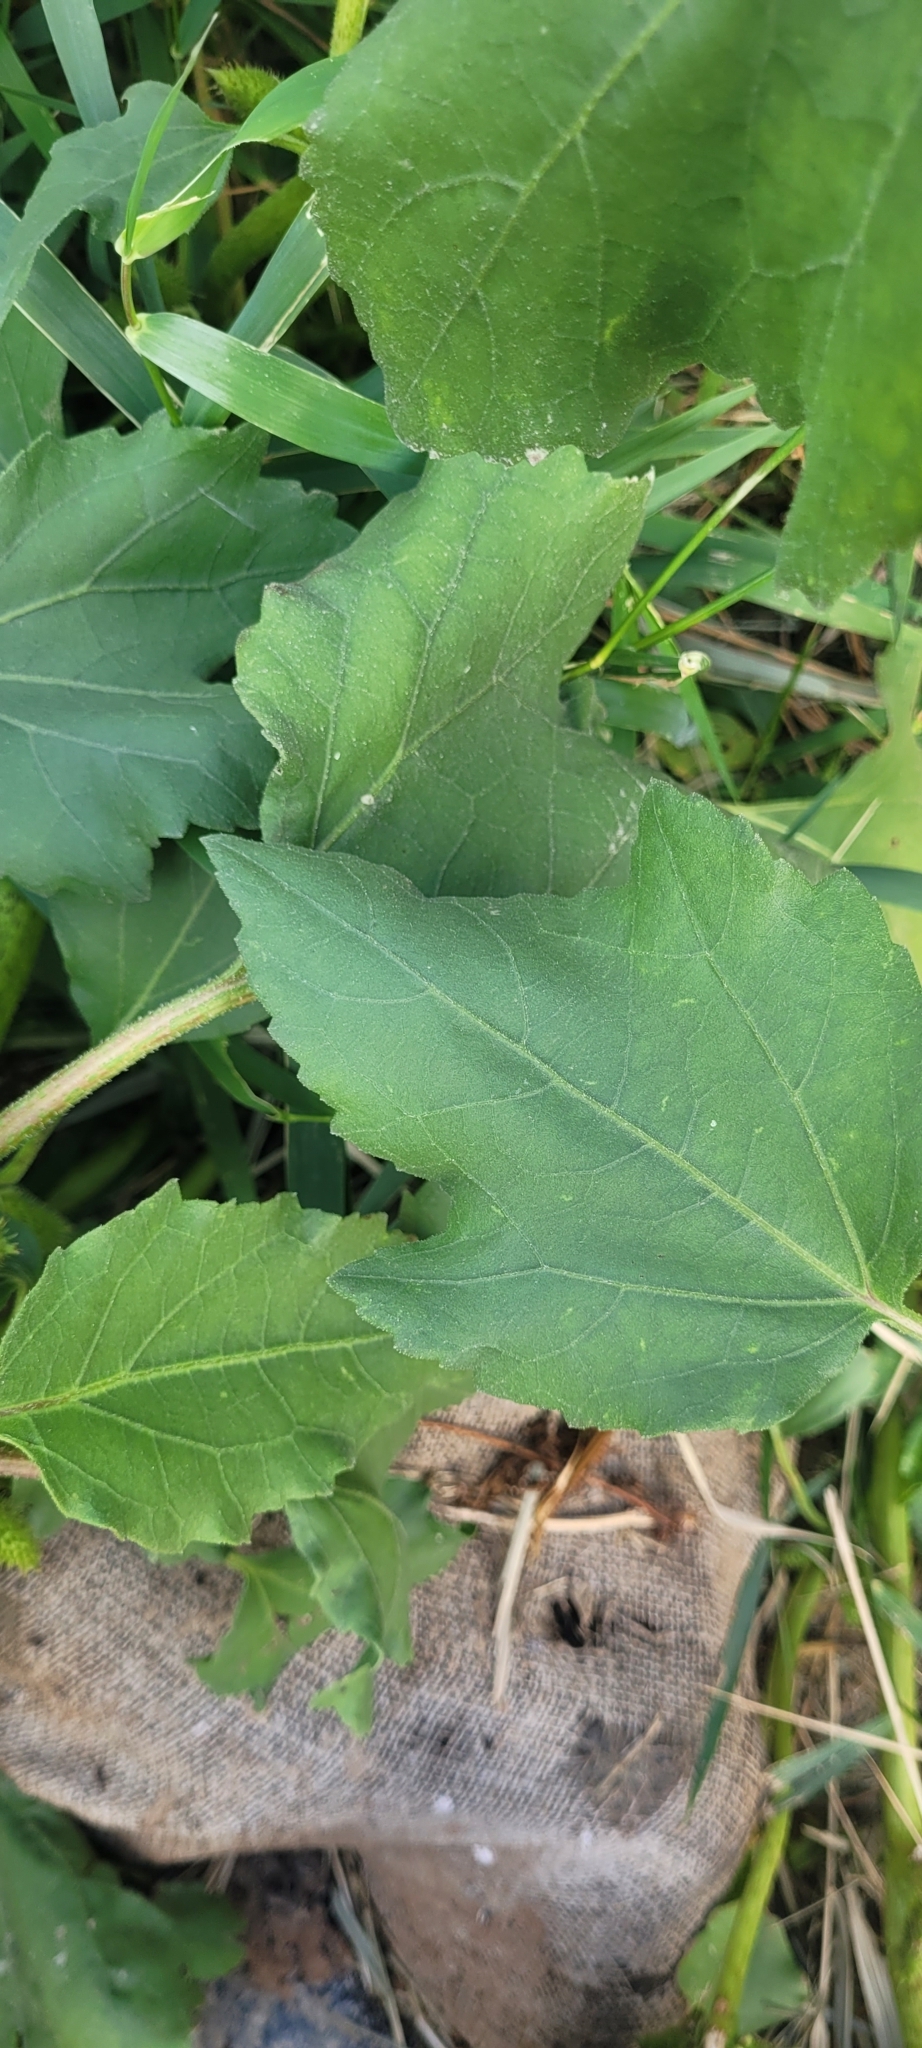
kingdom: Plantae
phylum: Tracheophyta
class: Magnoliopsida
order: Asterales
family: Asteraceae
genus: Xanthium
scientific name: Xanthium strumarium
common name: Rough cocklebur
